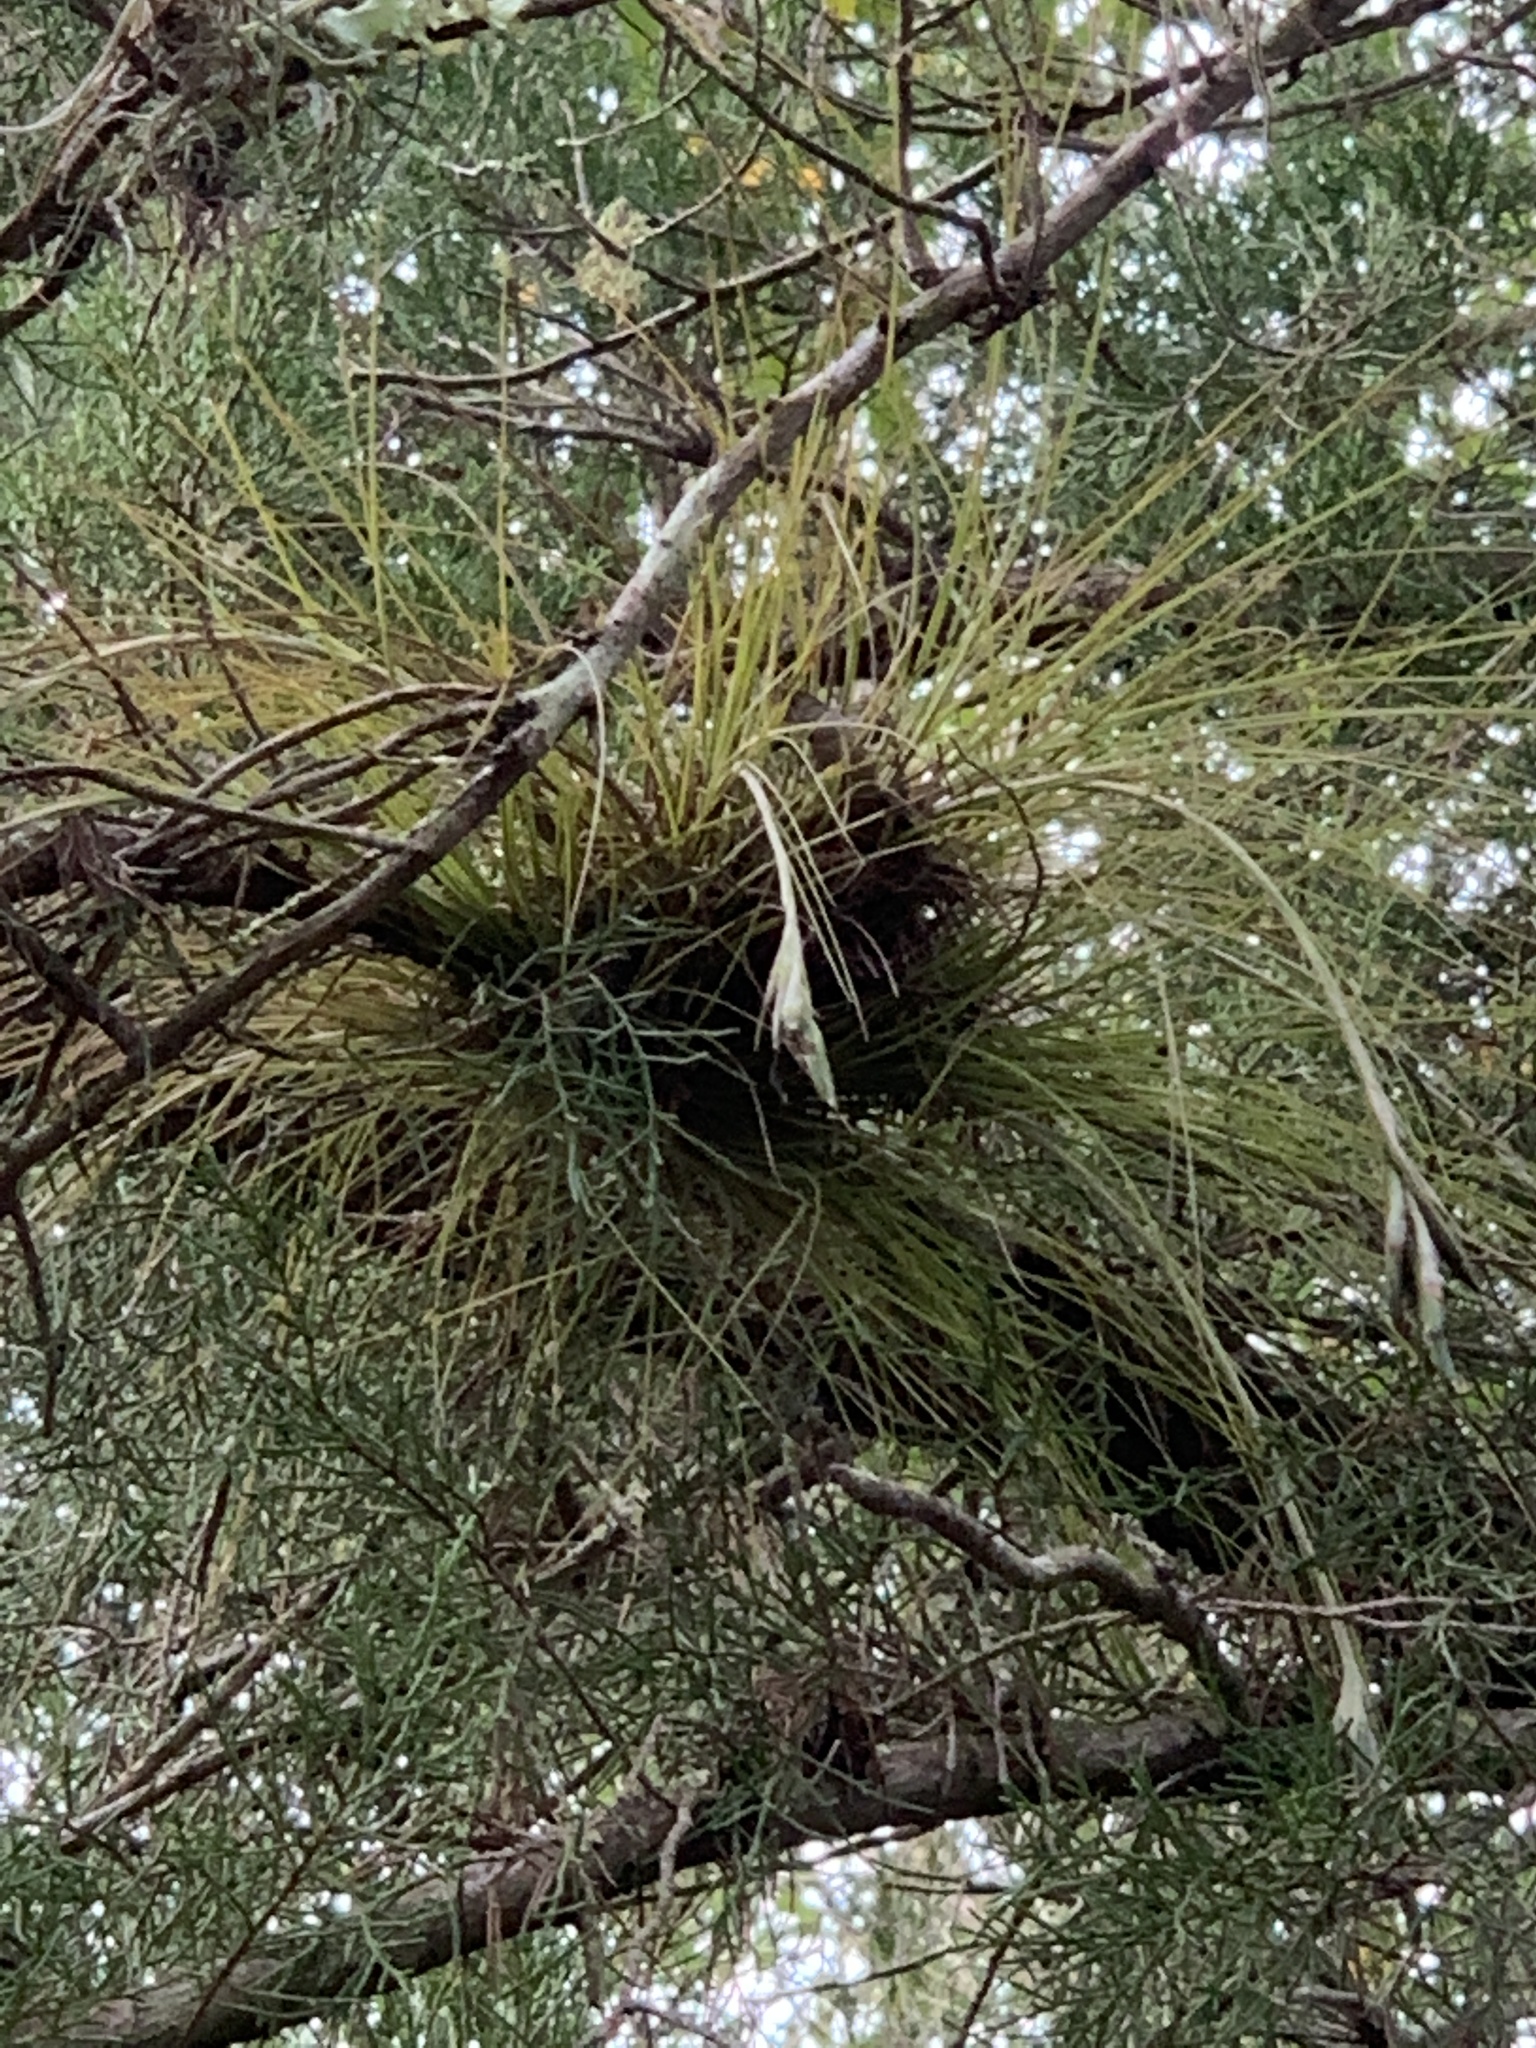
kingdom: Plantae
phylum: Tracheophyta
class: Liliopsida
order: Poales
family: Bromeliaceae
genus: Tillandsia
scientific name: Tillandsia setacea
